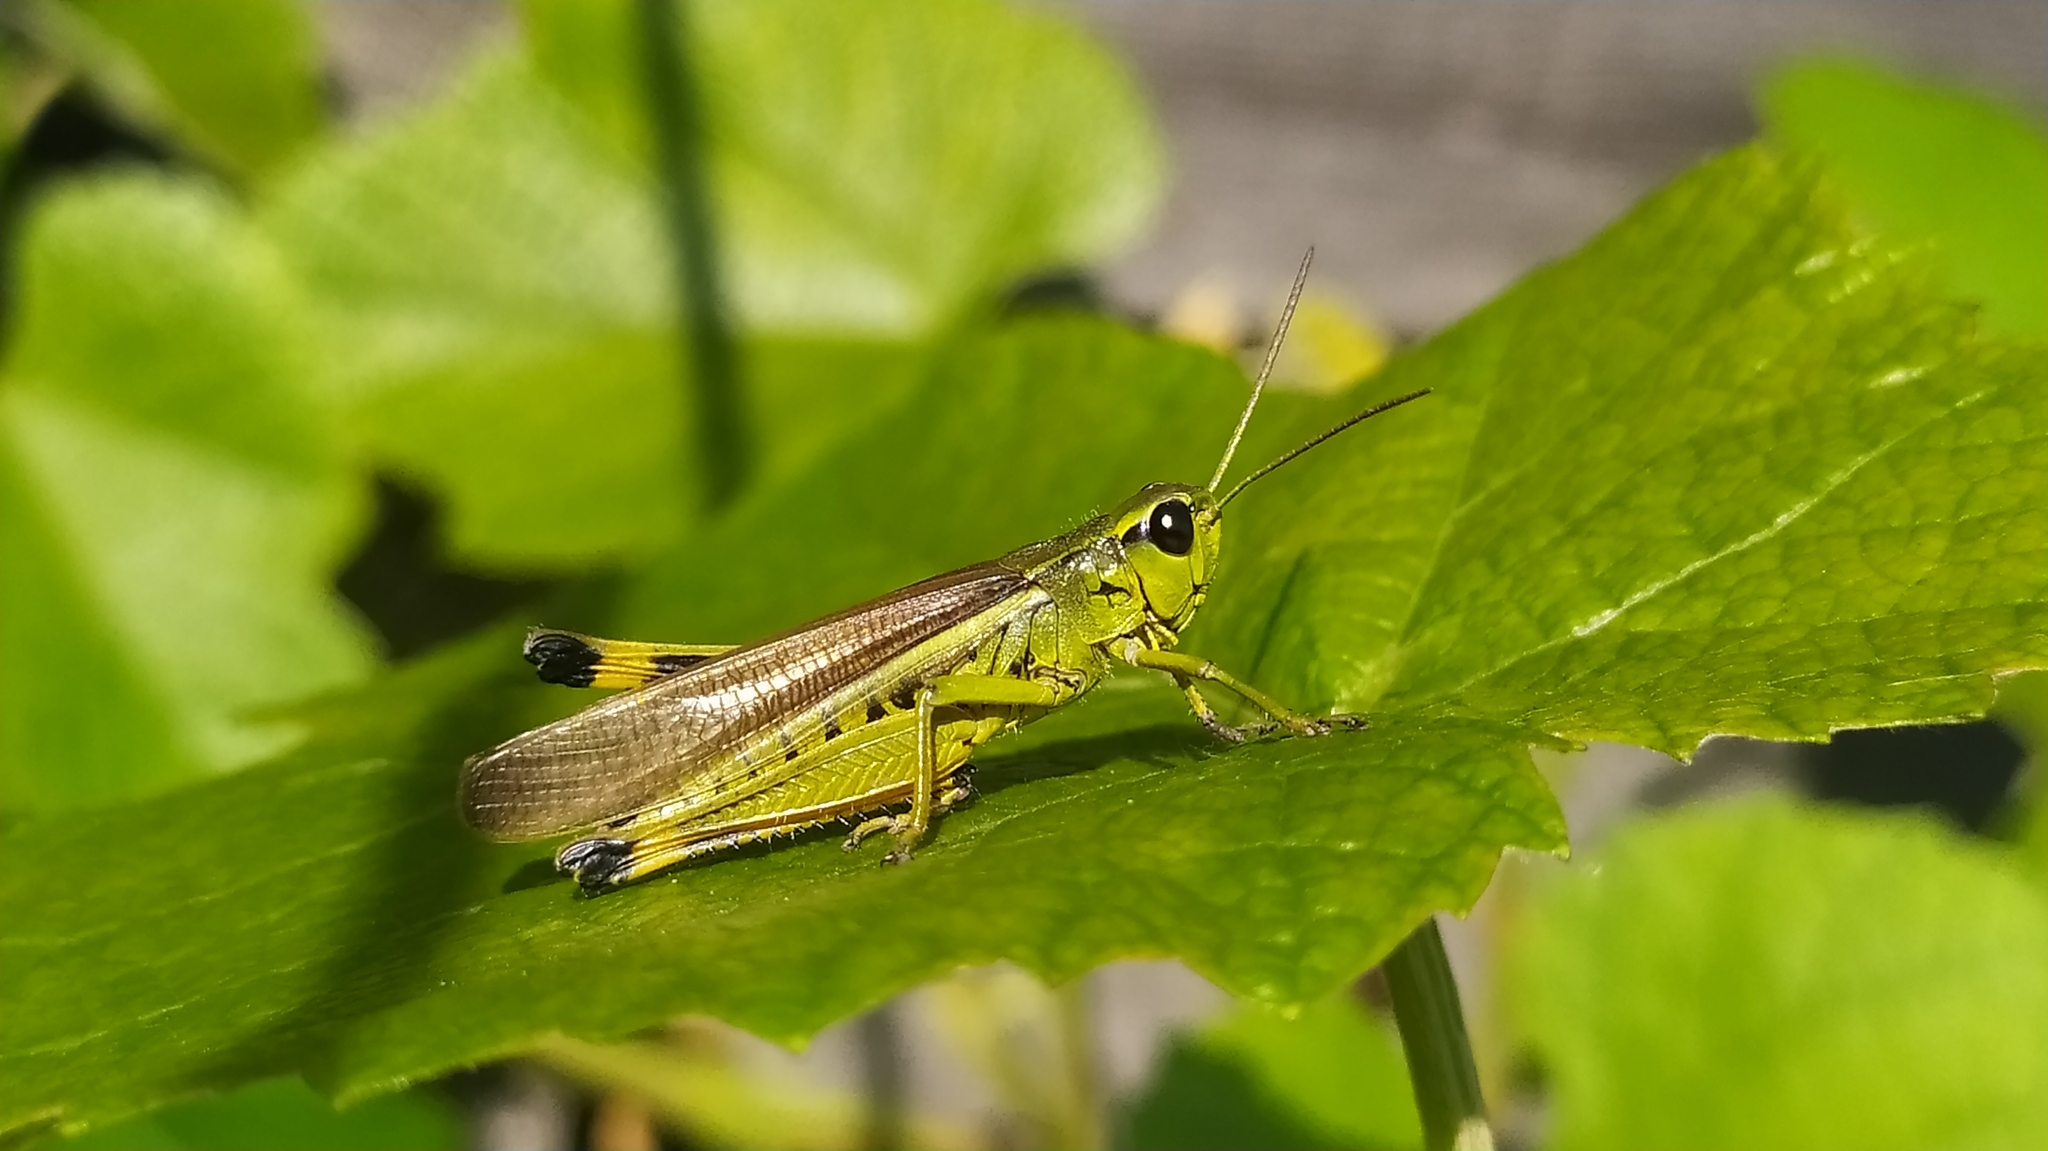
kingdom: Animalia
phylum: Arthropoda
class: Insecta
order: Orthoptera
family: Acrididae
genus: Stethophyma
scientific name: Stethophyma grossum
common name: Large marsh grasshopper
